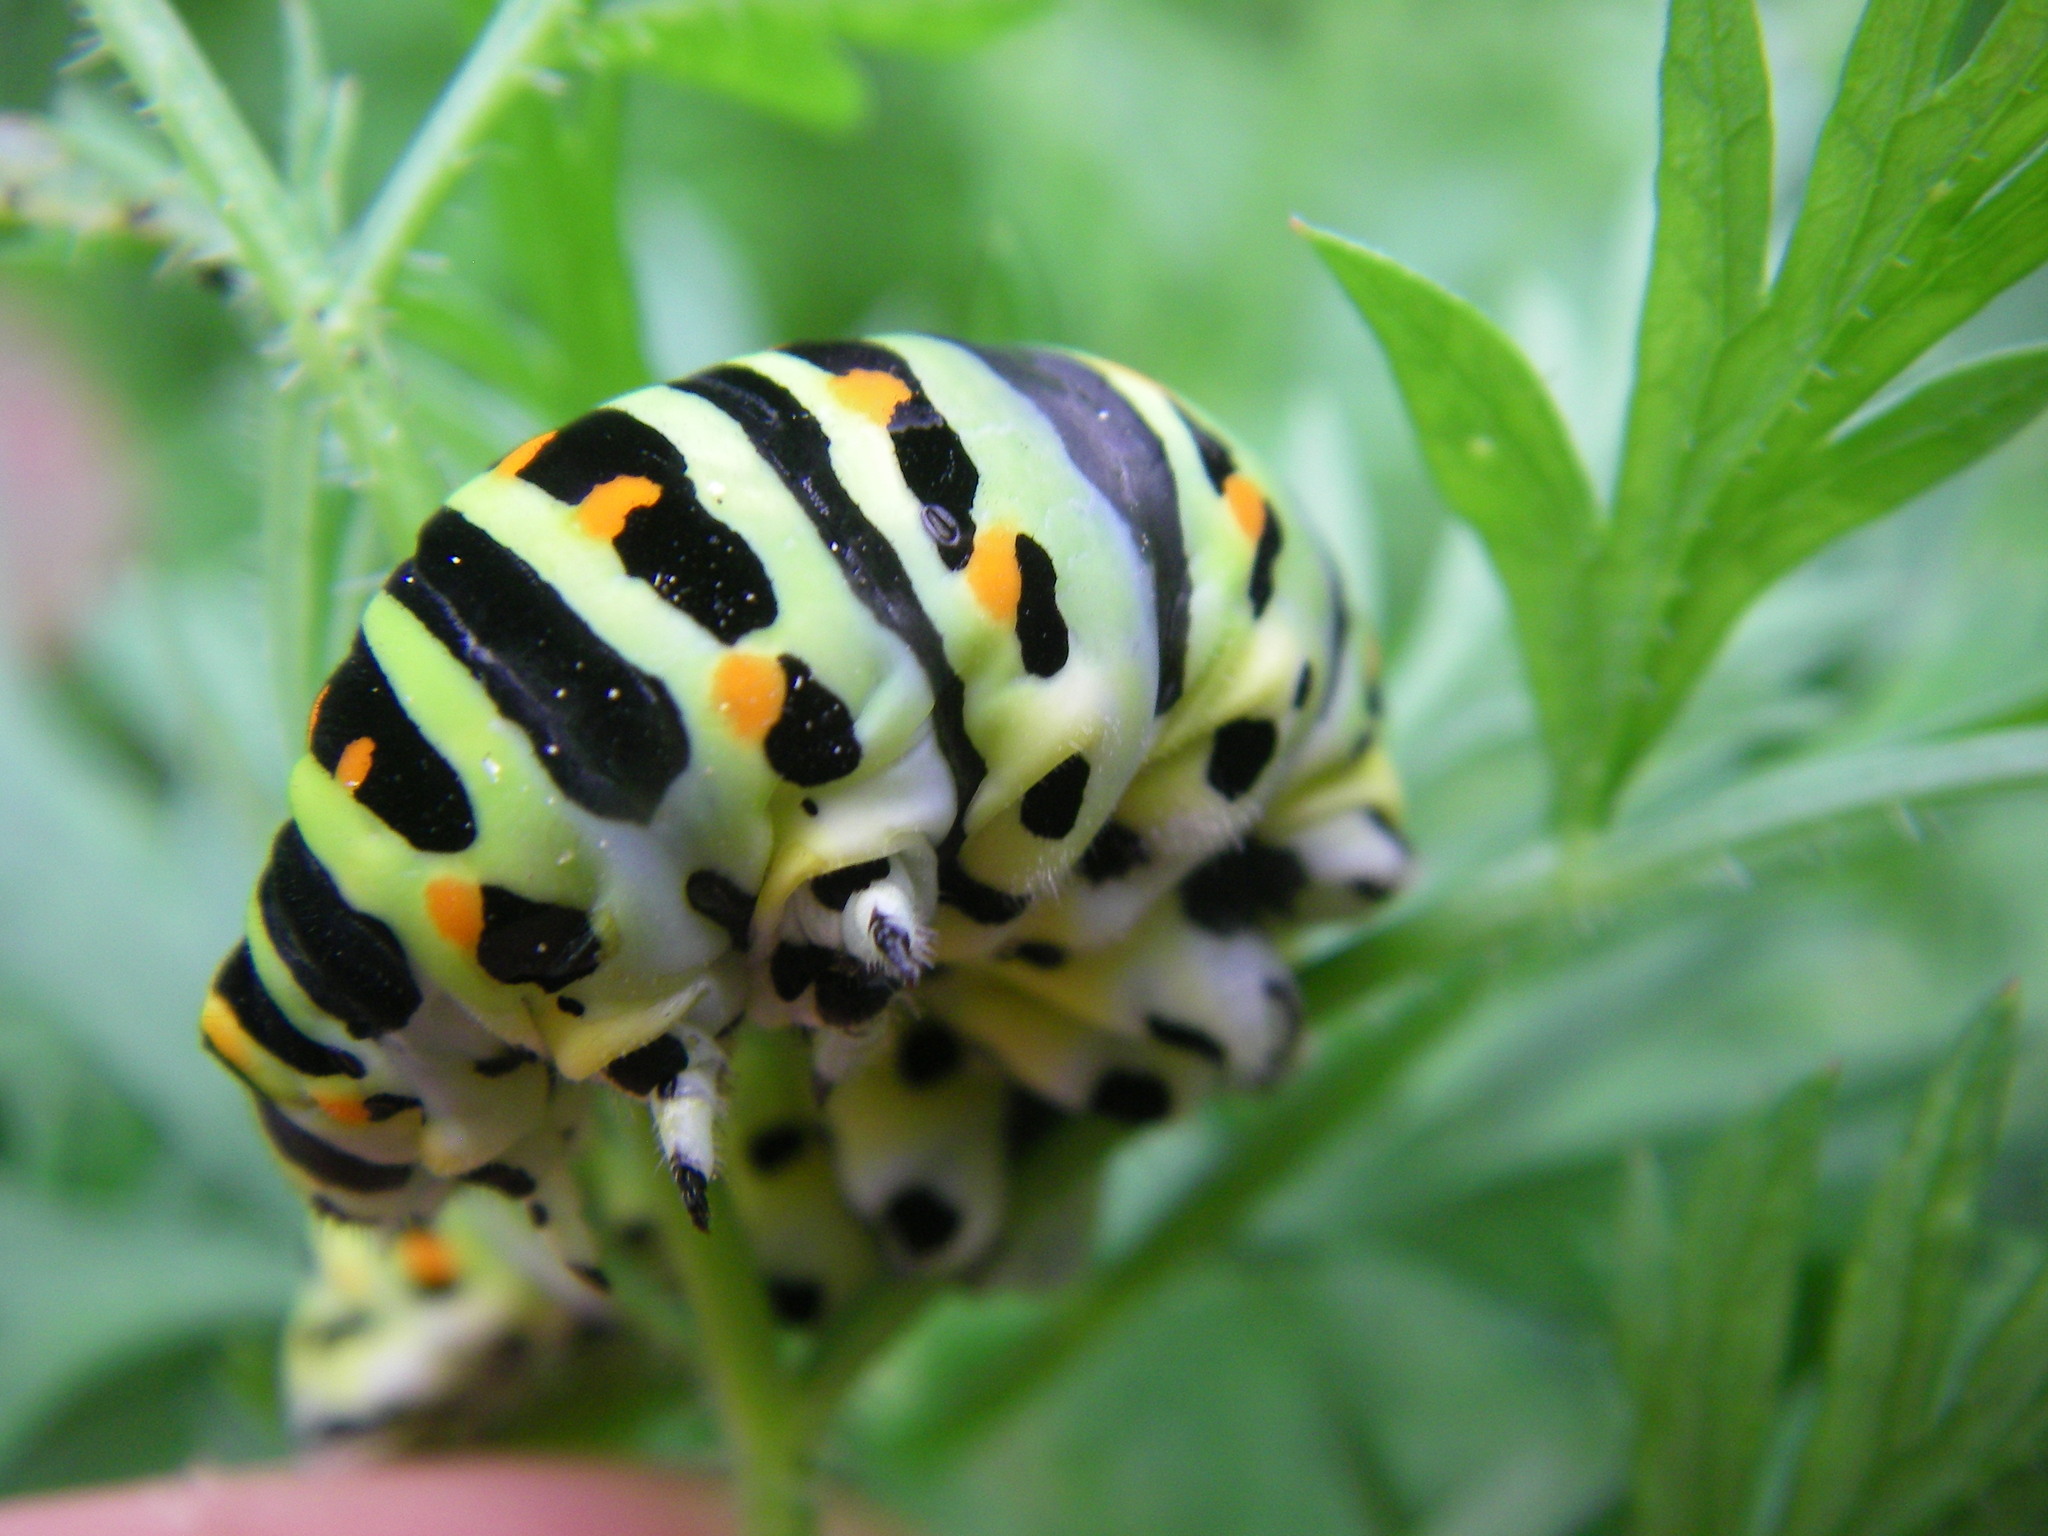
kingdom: Animalia
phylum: Arthropoda
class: Insecta
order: Lepidoptera
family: Papilionidae
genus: Papilio
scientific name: Papilio machaon
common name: Swallowtail
